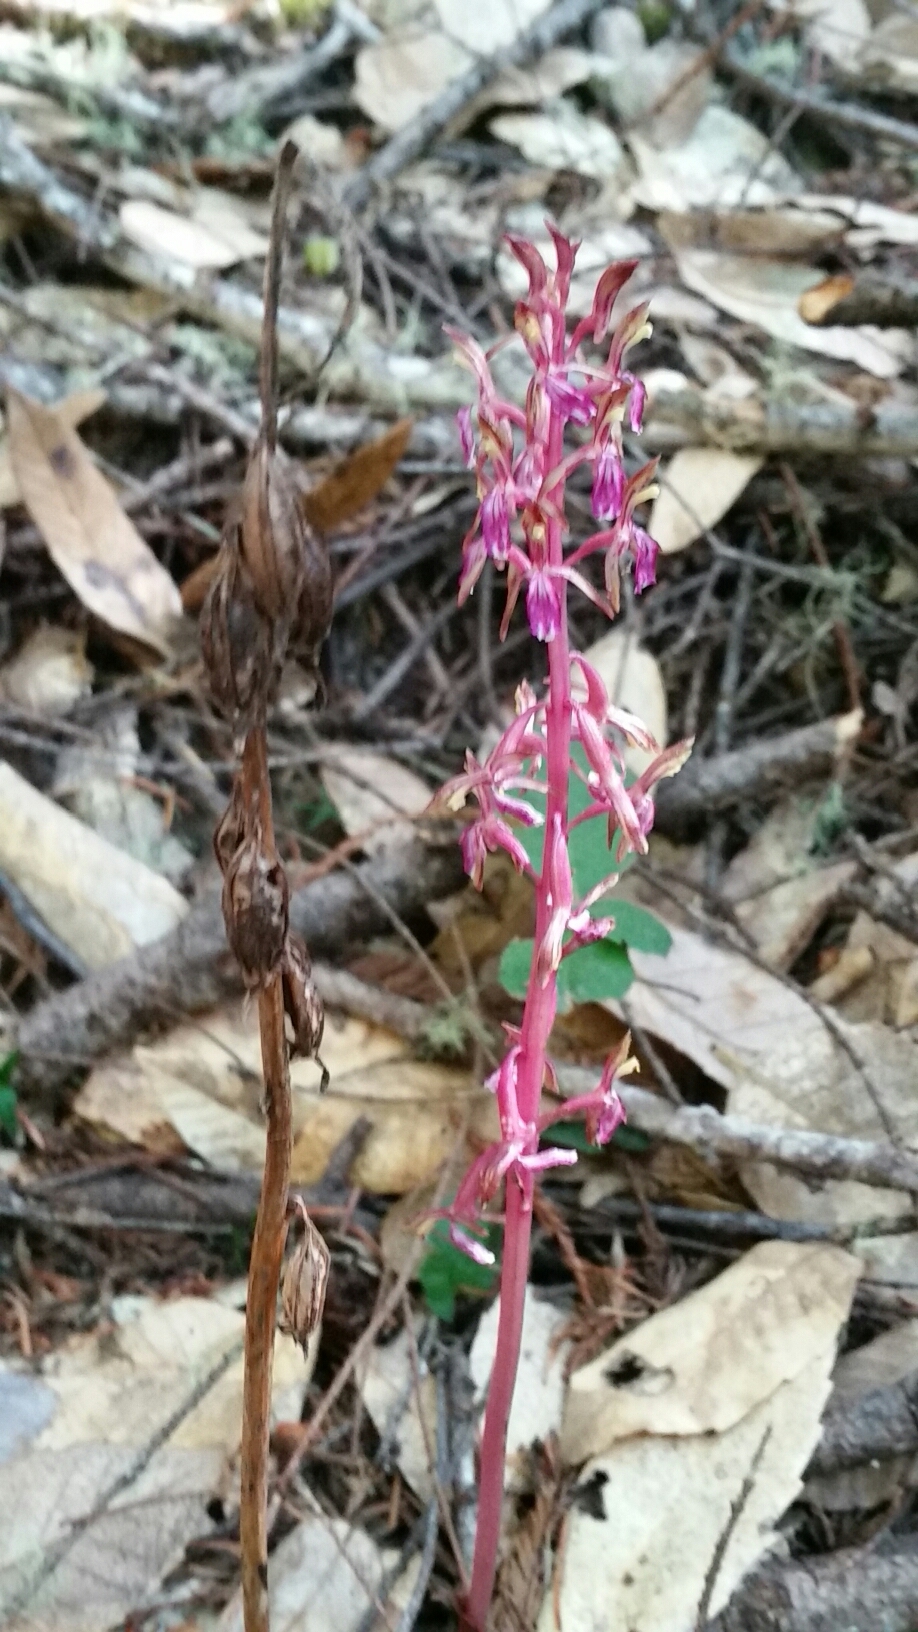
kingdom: Plantae
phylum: Tracheophyta
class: Liliopsida
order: Asparagales
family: Orchidaceae
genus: Corallorhiza
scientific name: Corallorhiza mertensiana
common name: Pacific coralroot
